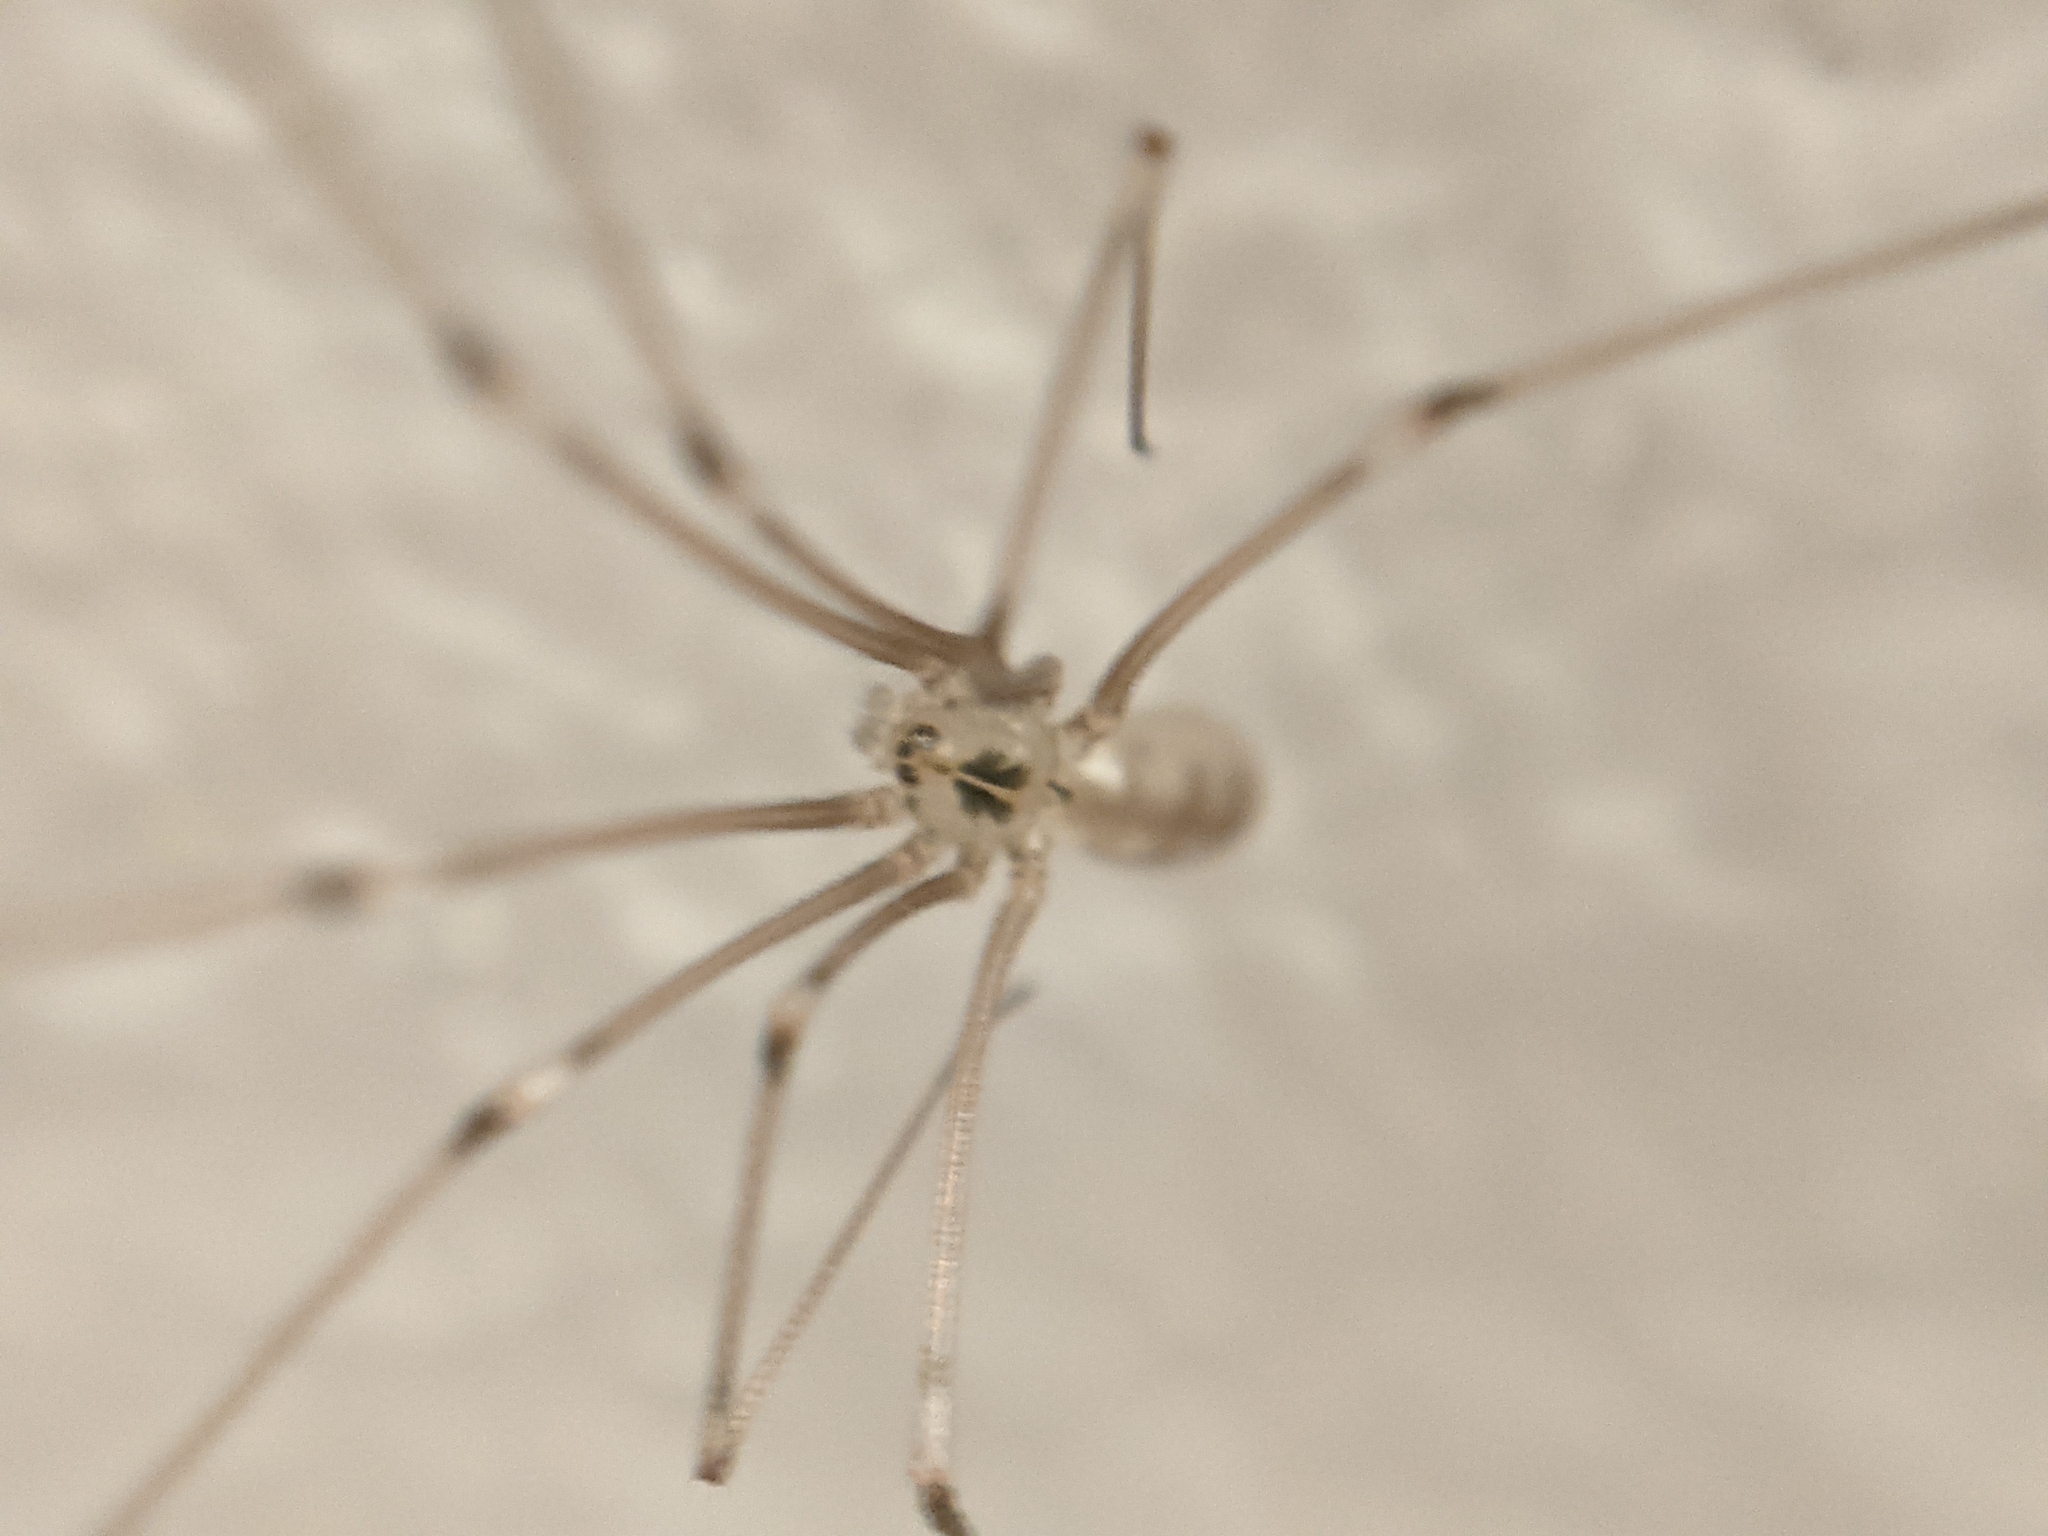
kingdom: Animalia
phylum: Arthropoda
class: Arachnida
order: Araneae
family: Pholcidae
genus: Pholcus
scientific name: Pholcus phalangioides
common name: Longbodied cellar spider
